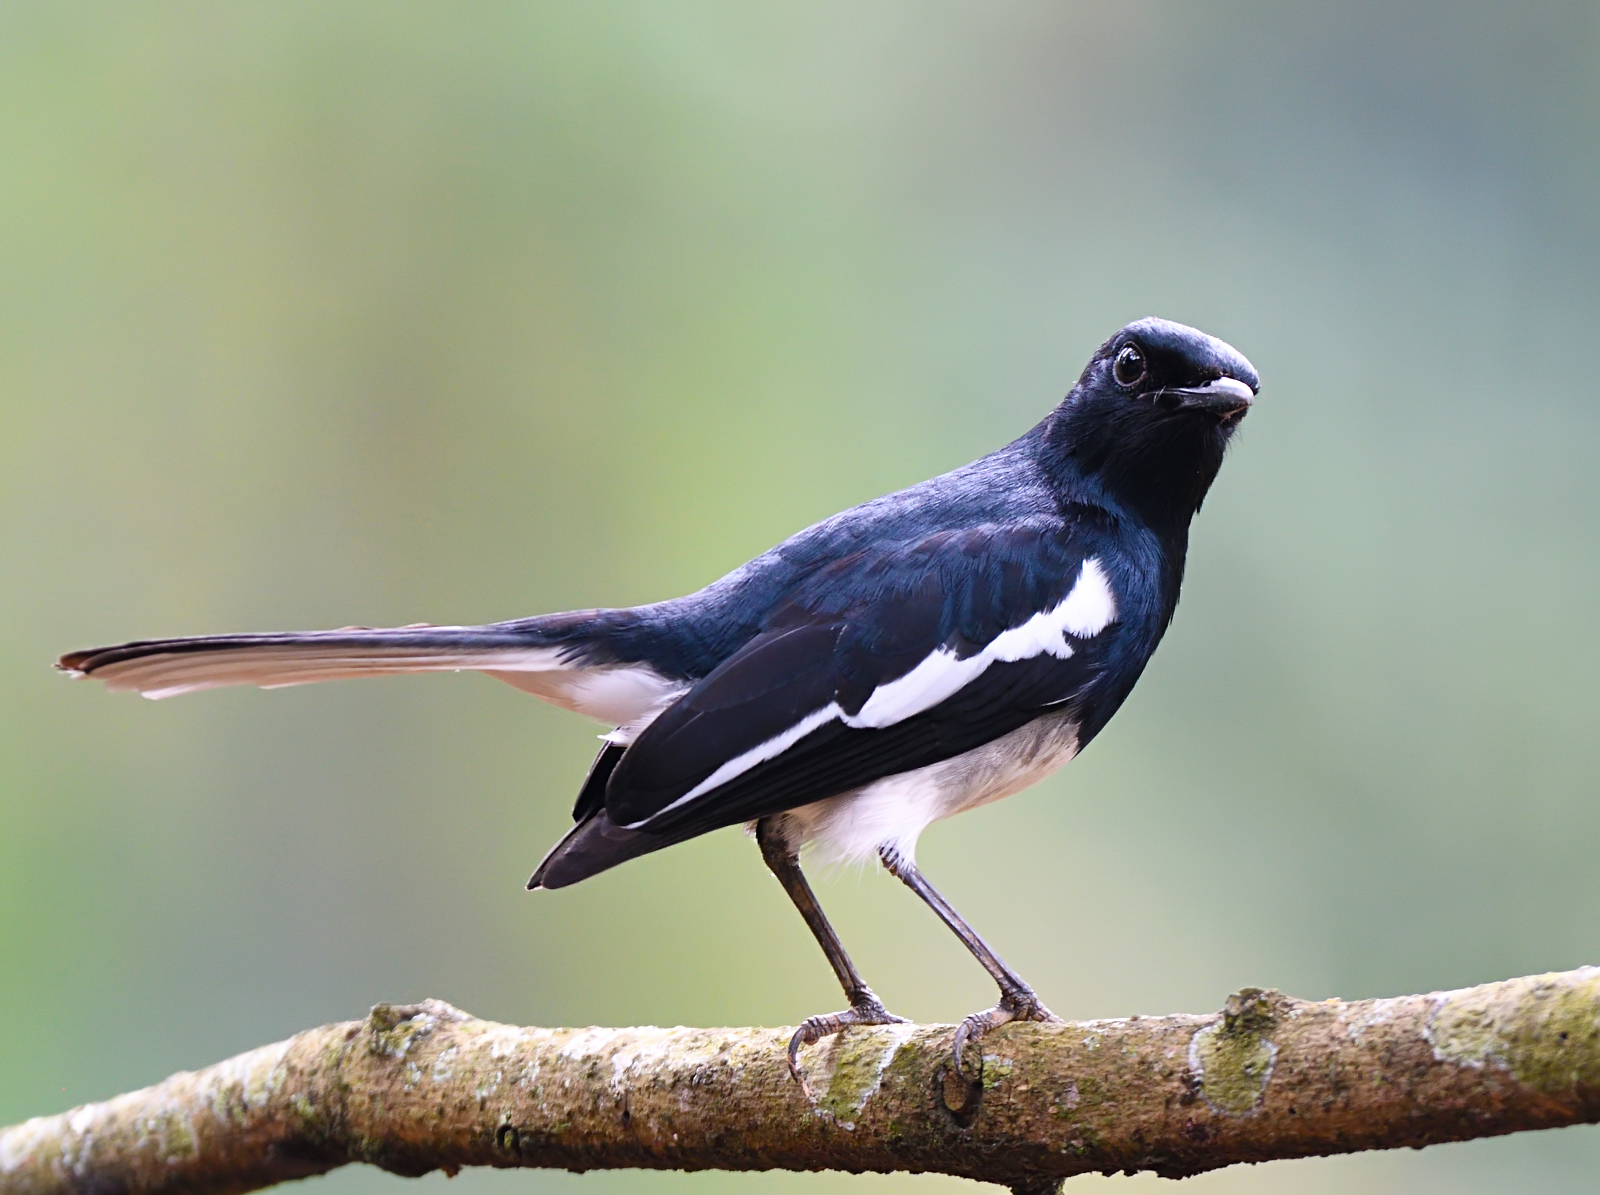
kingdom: Animalia
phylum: Chordata
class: Aves
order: Passeriformes
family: Muscicapidae
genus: Copsychus
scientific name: Copsychus saularis
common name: Oriental magpie-robin
